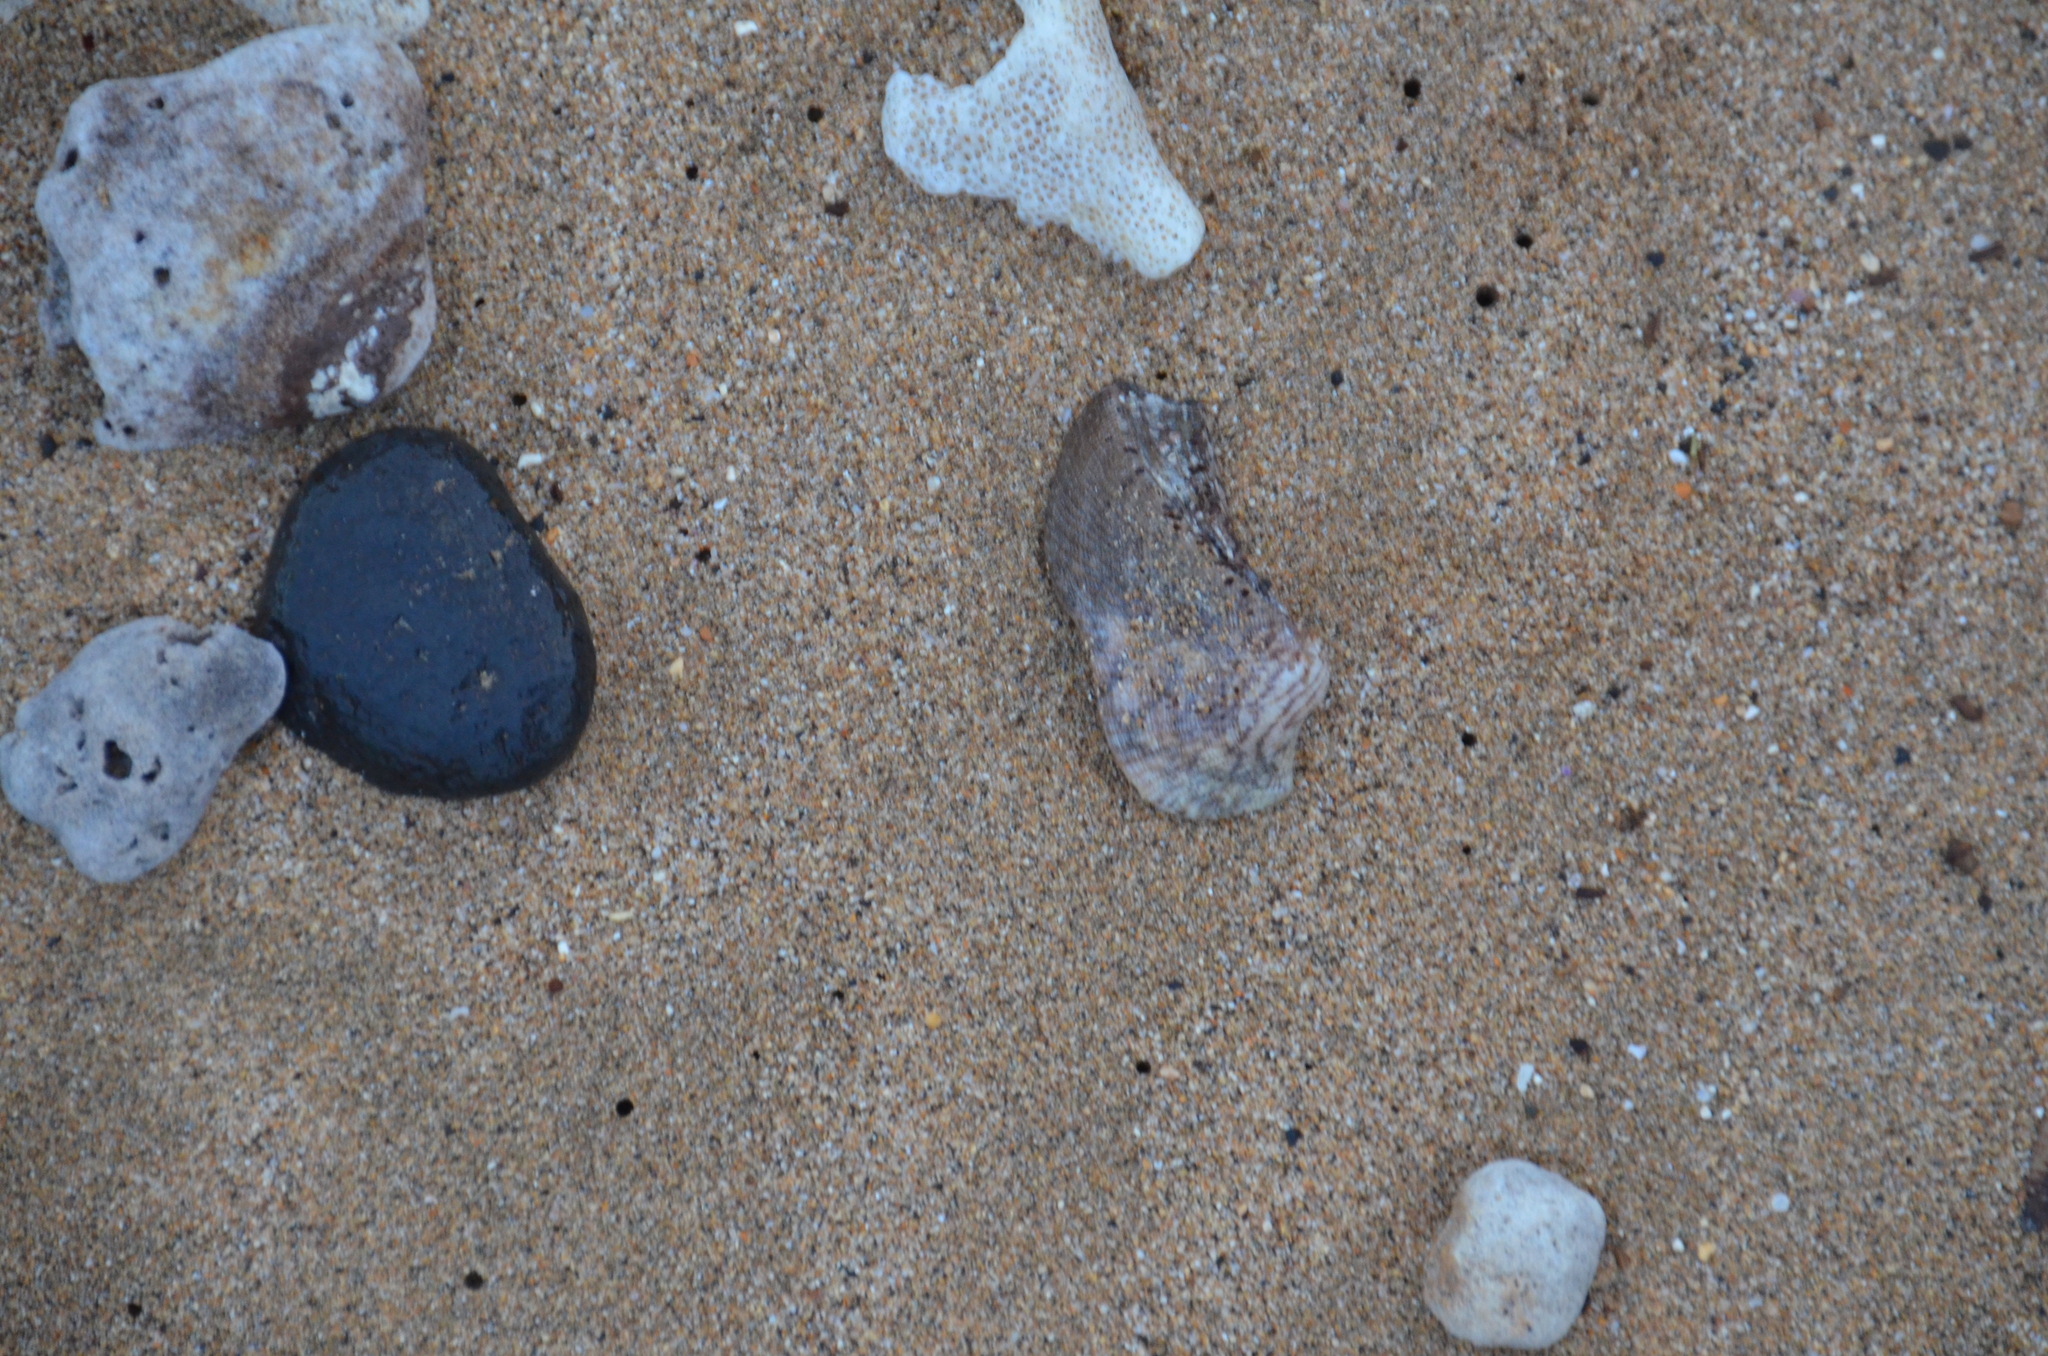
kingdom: Animalia
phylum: Mollusca
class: Bivalvia
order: Arcida
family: Arcidae
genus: Lamarcka
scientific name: Lamarcka ventricosa
